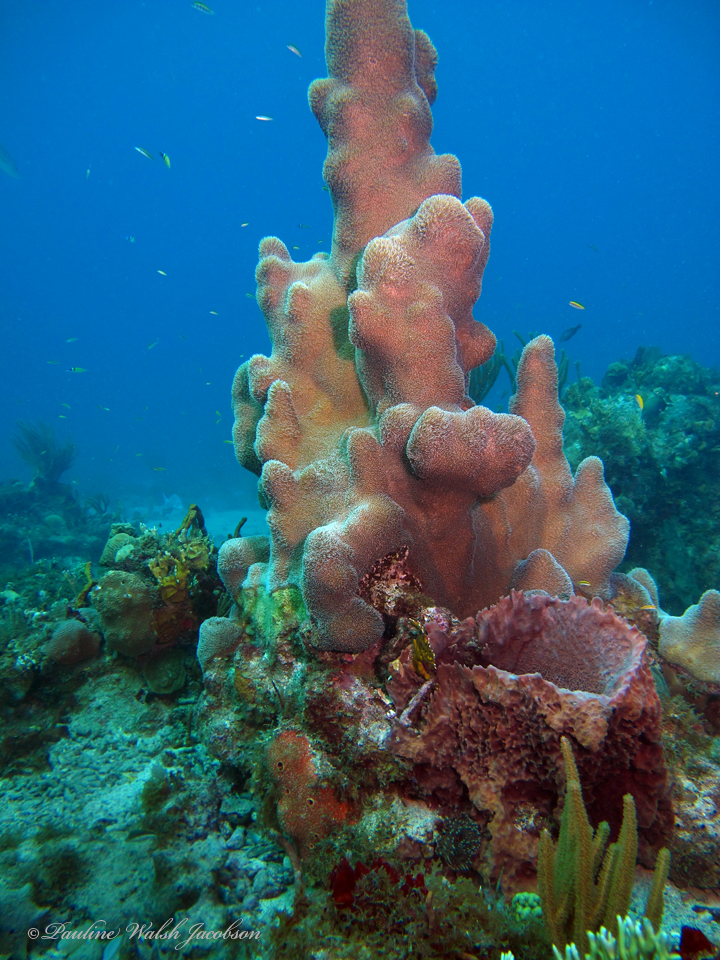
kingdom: Animalia
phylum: Cnidaria
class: Anthozoa
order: Scleractinia
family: Meandrinidae
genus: Dendrogyra
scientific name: Dendrogyra cylindrus
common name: Pillar coral
